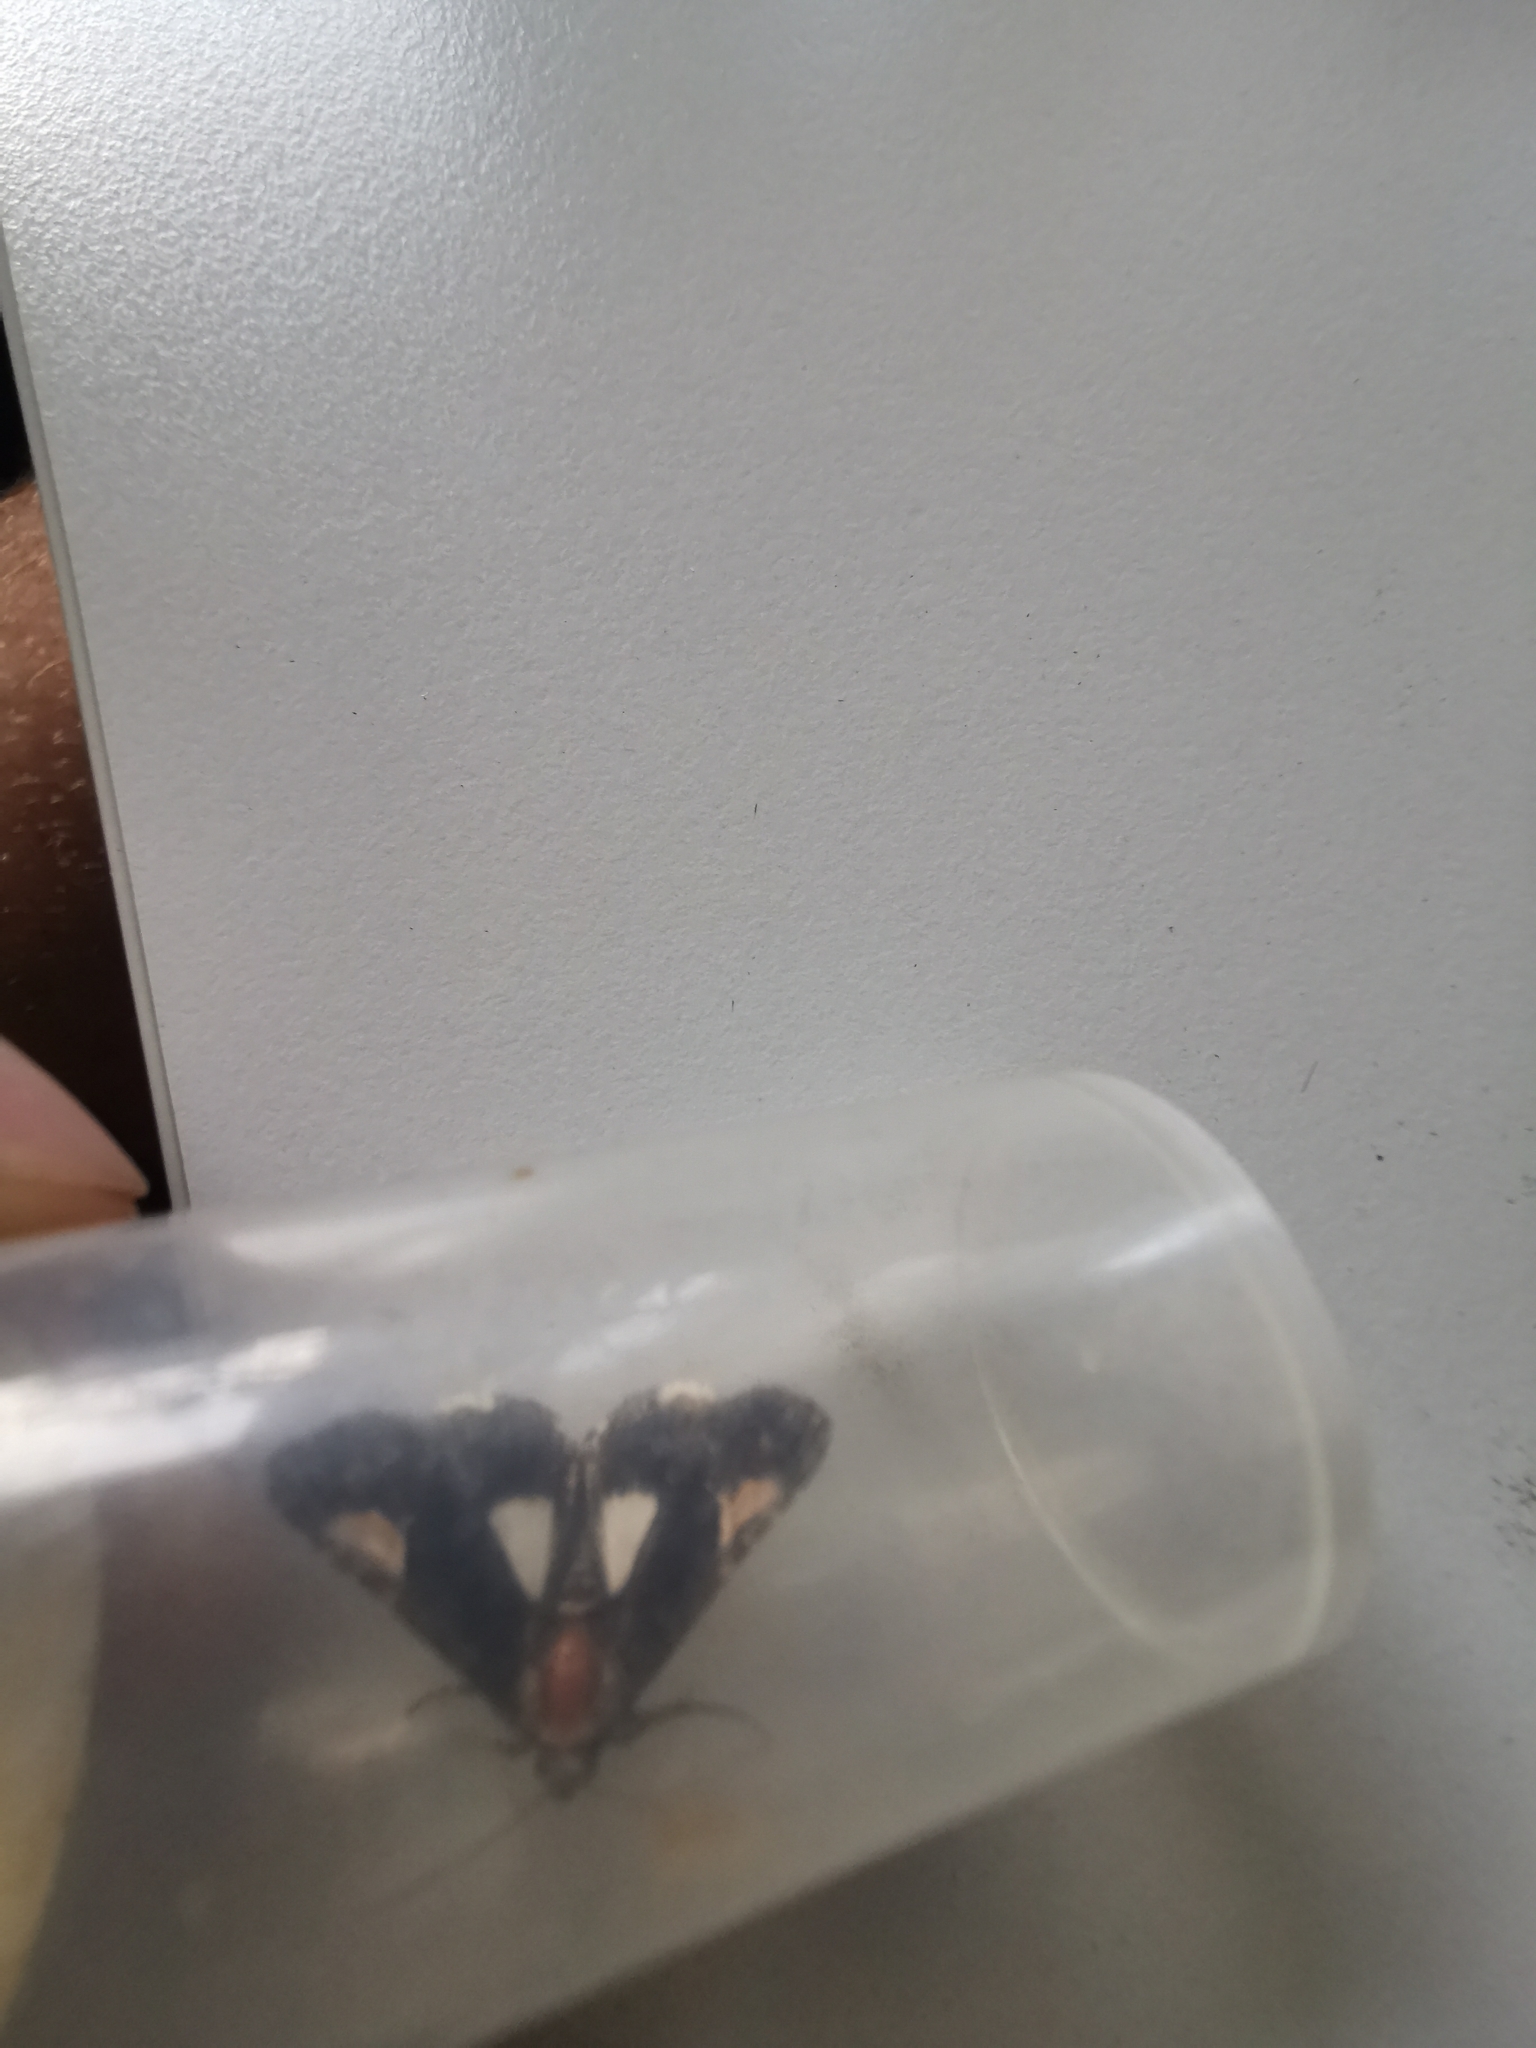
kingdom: Animalia
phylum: Arthropoda
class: Insecta
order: Lepidoptera
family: Noctuidae
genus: Aedia
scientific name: Aedia funesta
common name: The druid
